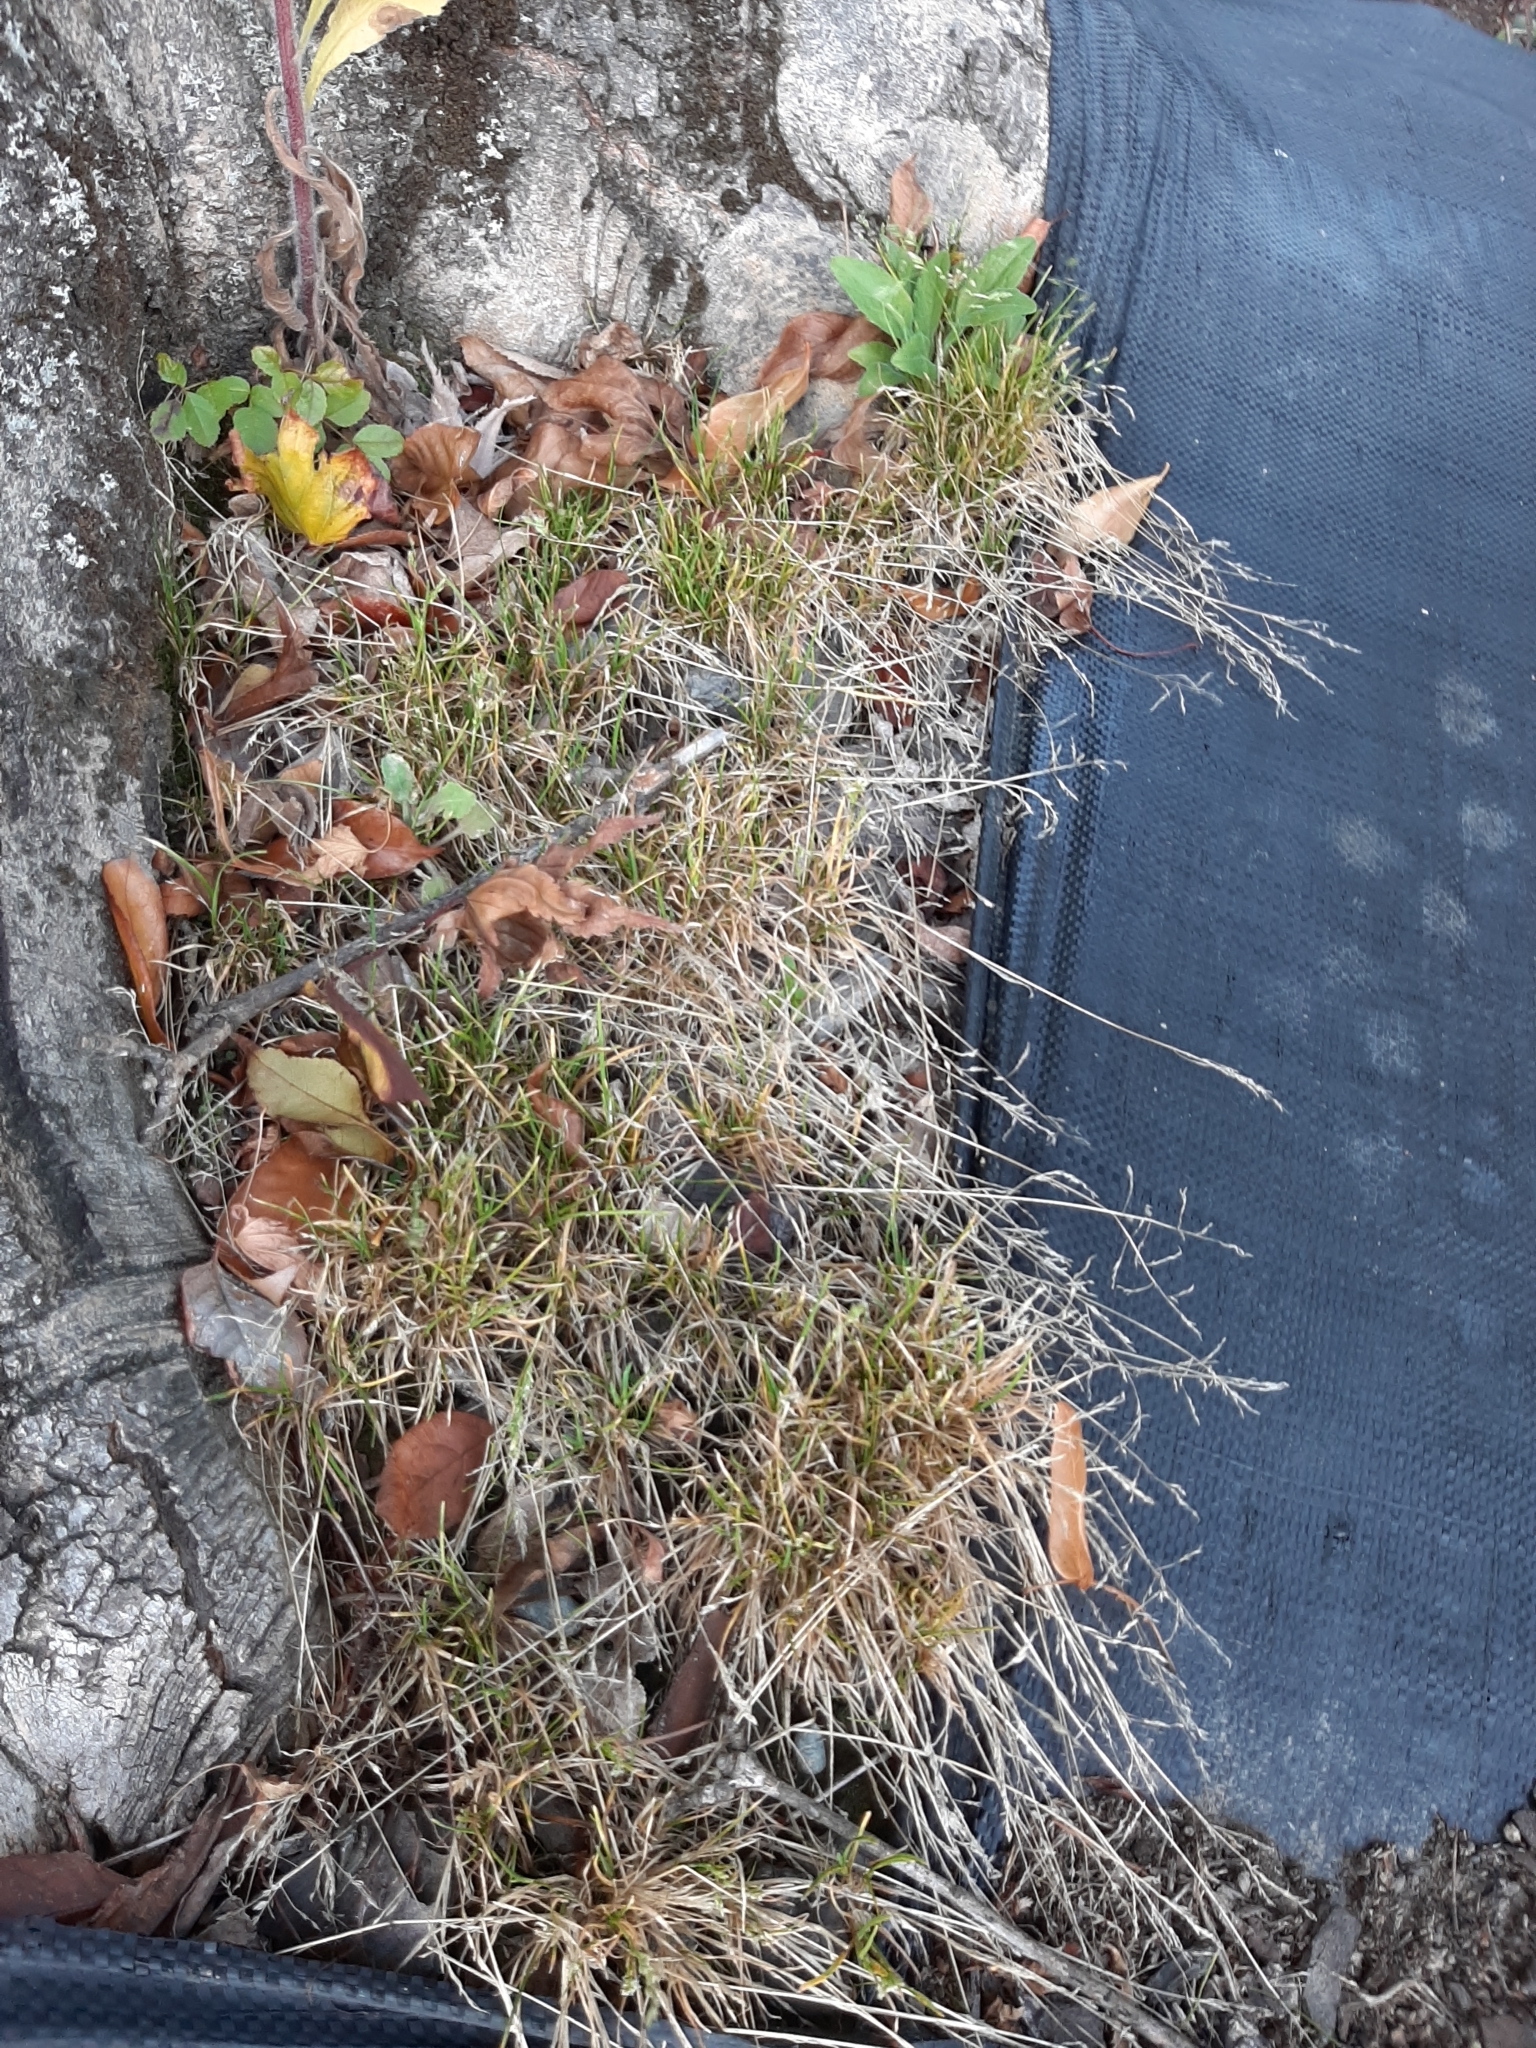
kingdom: Plantae
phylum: Tracheophyta
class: Liliopsida
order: Poales
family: Poaceae
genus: Poa
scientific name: Poa annua
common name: Annual bluegrass
